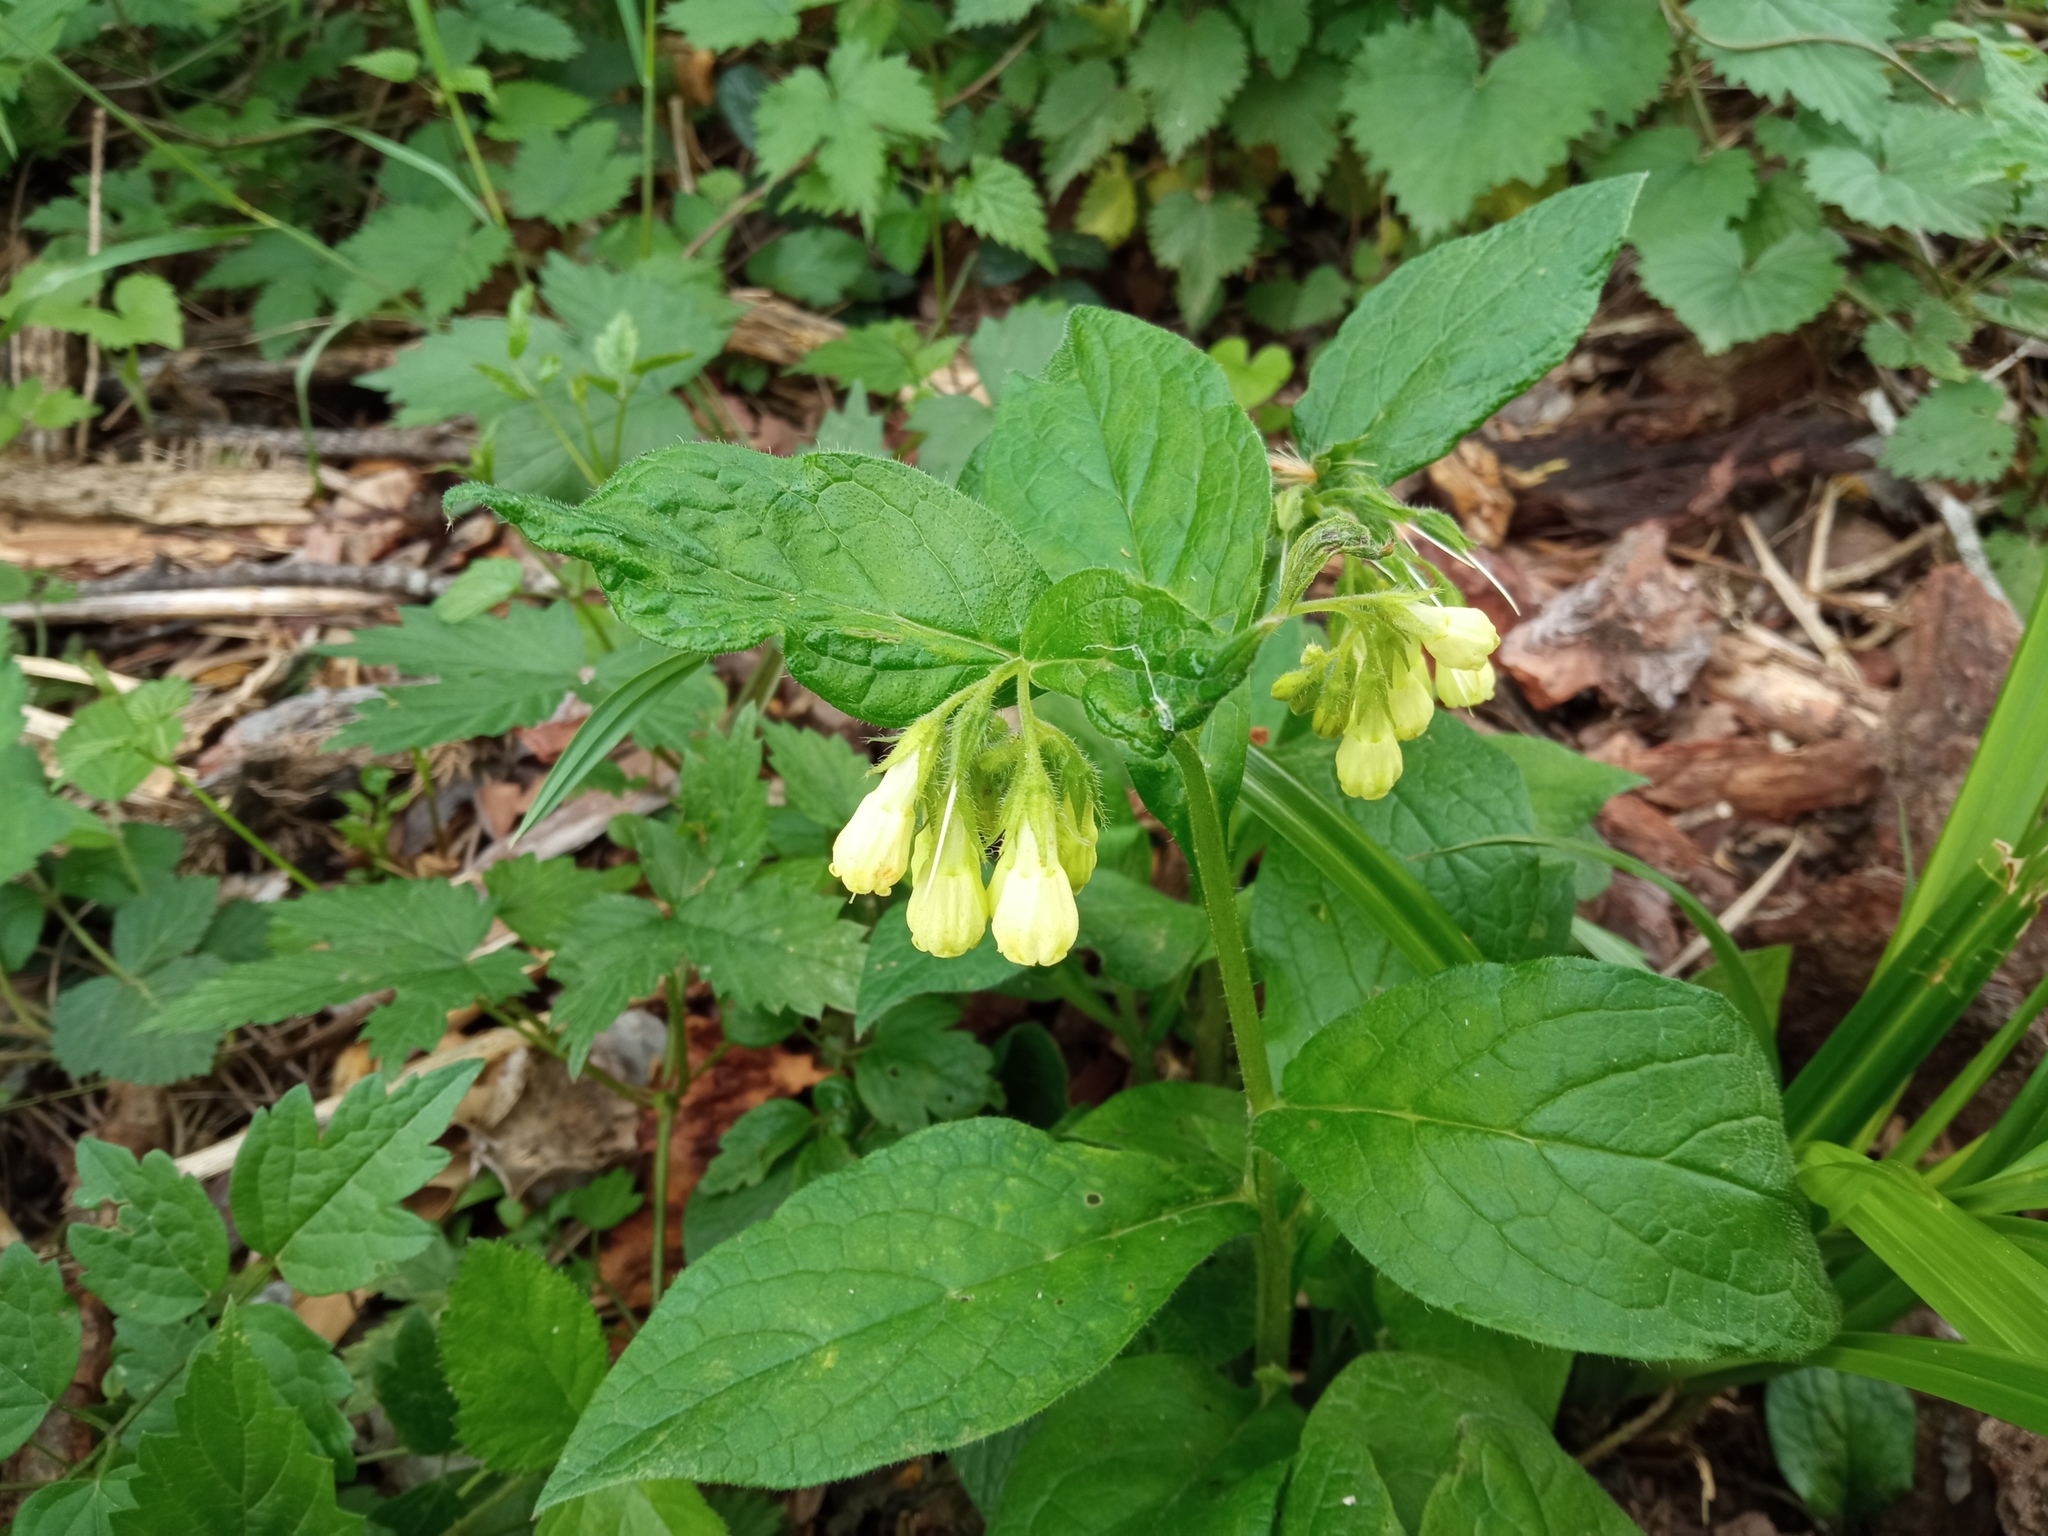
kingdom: Plantae
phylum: Tracheophyta
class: Magnoliopsida
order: Boraginales
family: Boraginaceae
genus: Symphytum
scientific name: Symphytum tuberosum
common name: Tuberous comfrey
